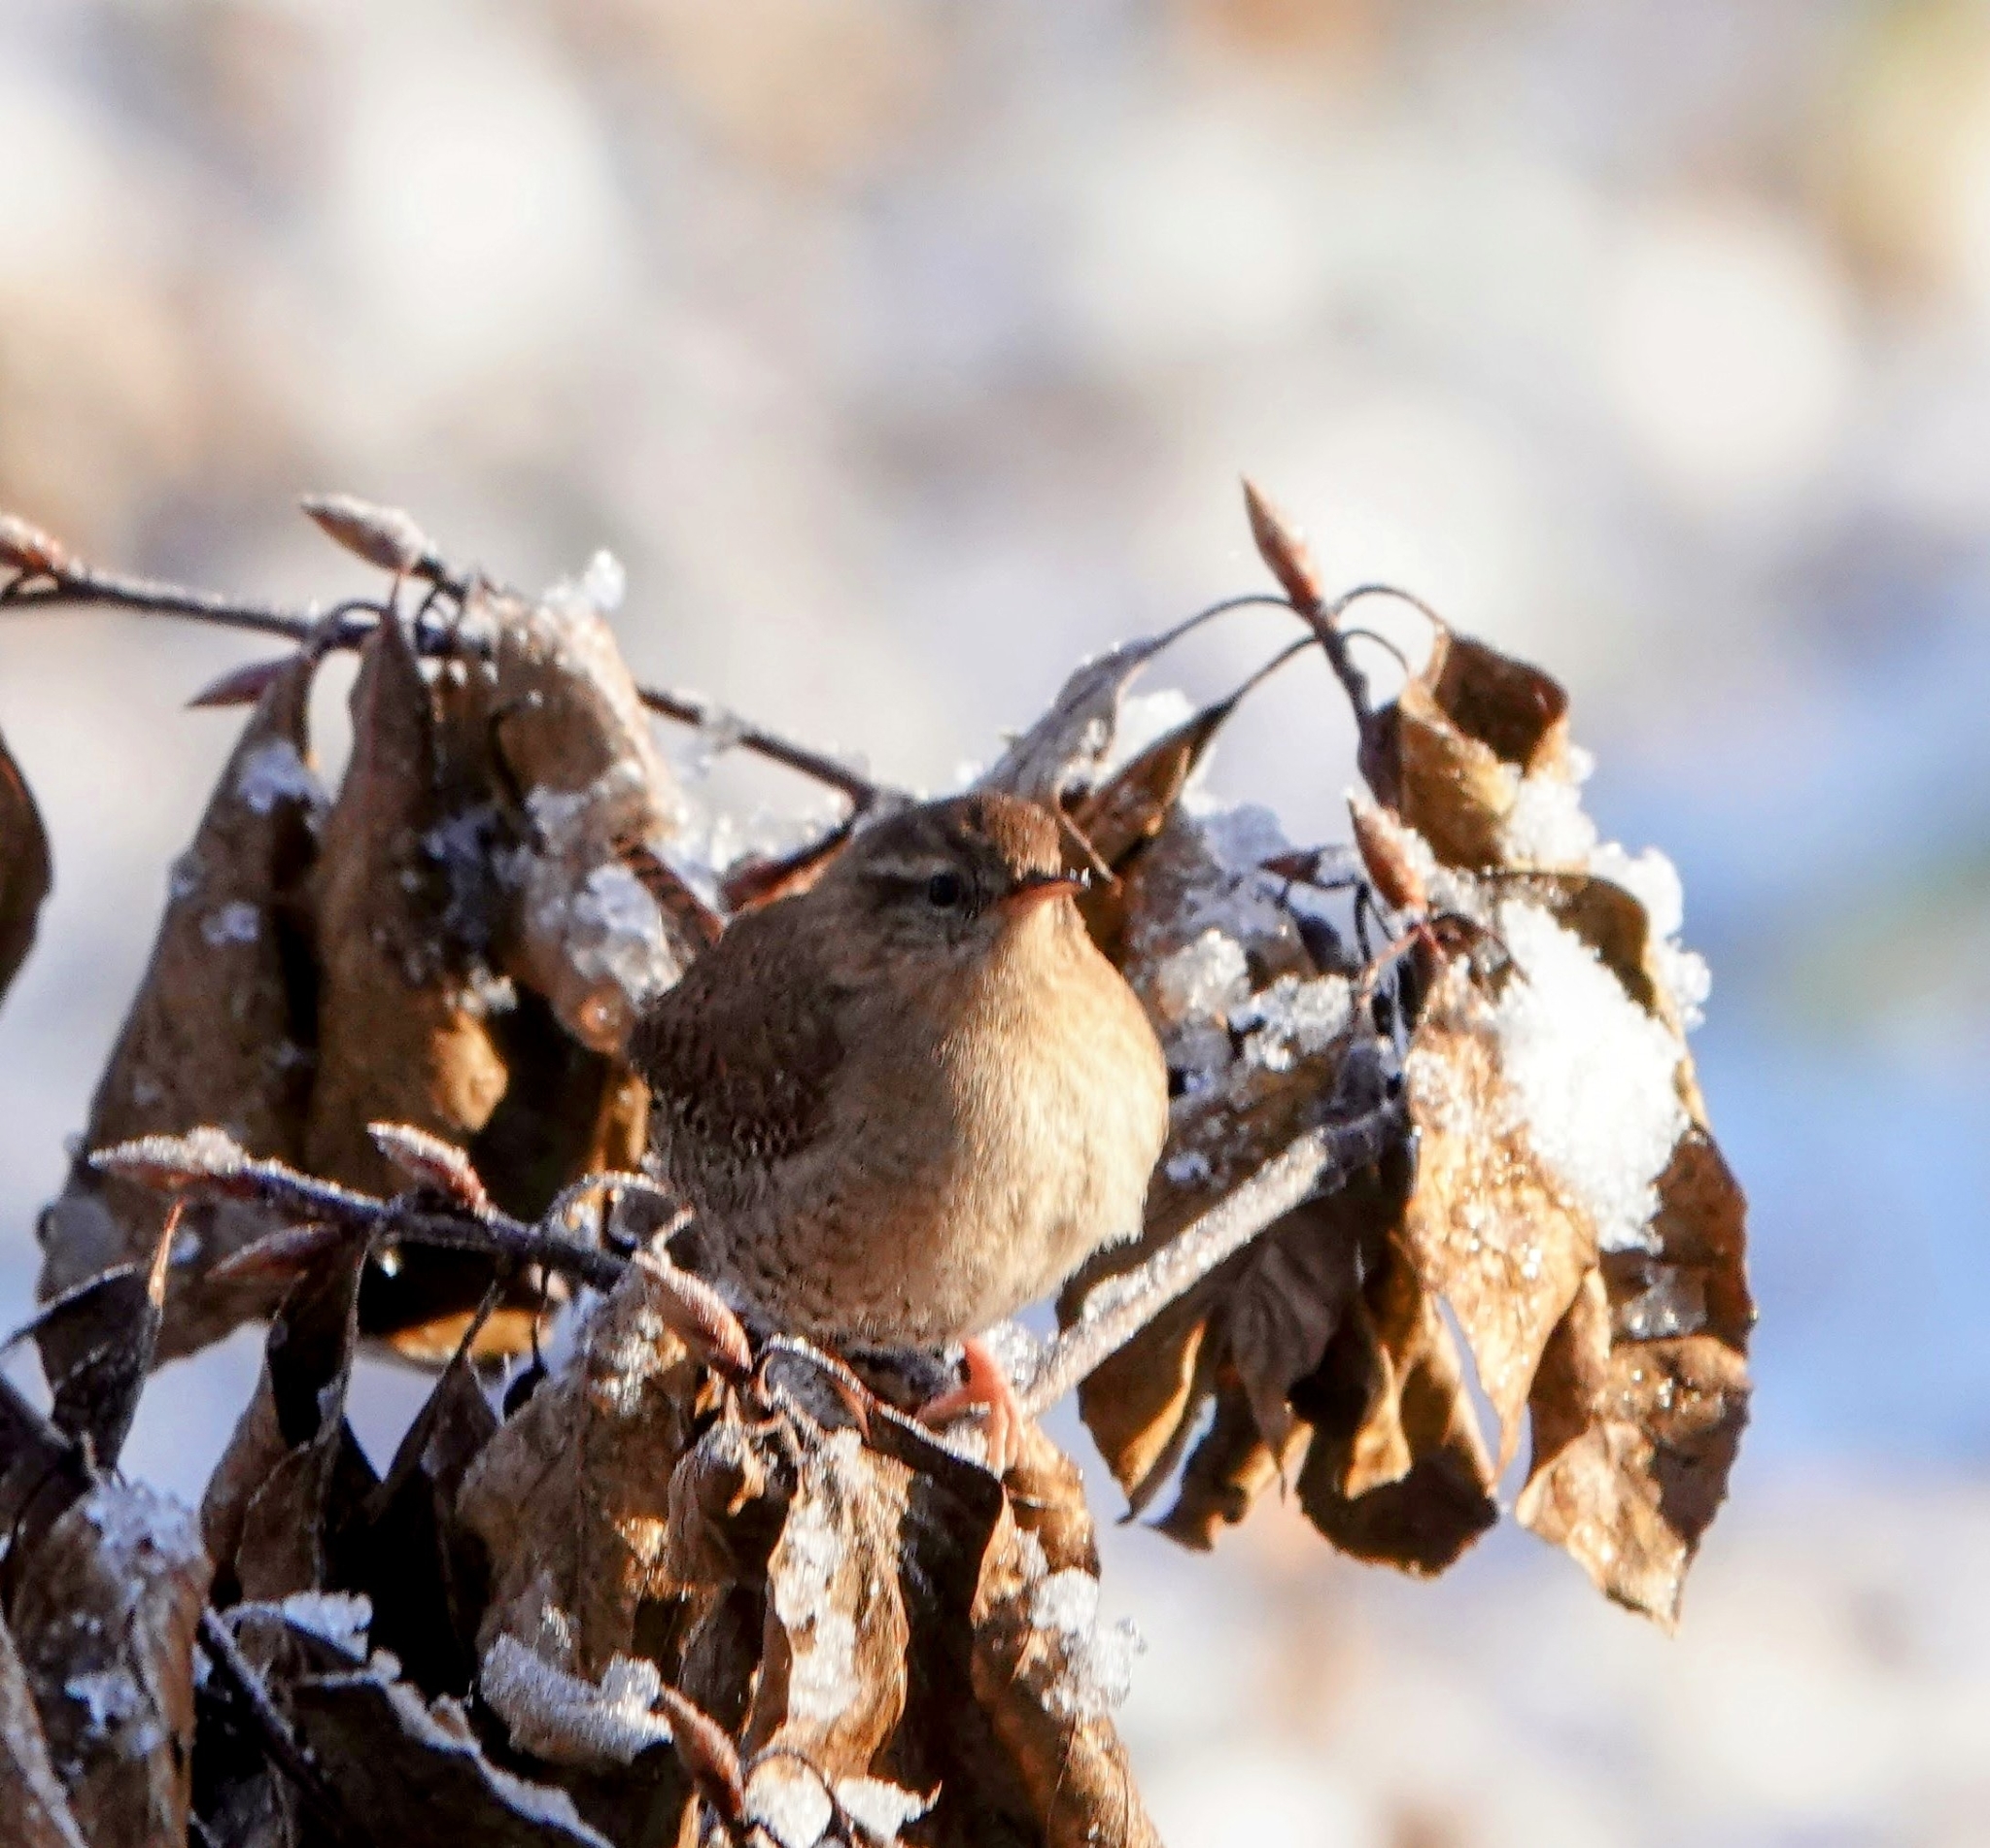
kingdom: Animalia
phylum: Chordata
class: Aves
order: Passeriformes
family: Troglodytidae
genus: Troglodytes
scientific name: Troglodytes troglodytes
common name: Eurasian wren
